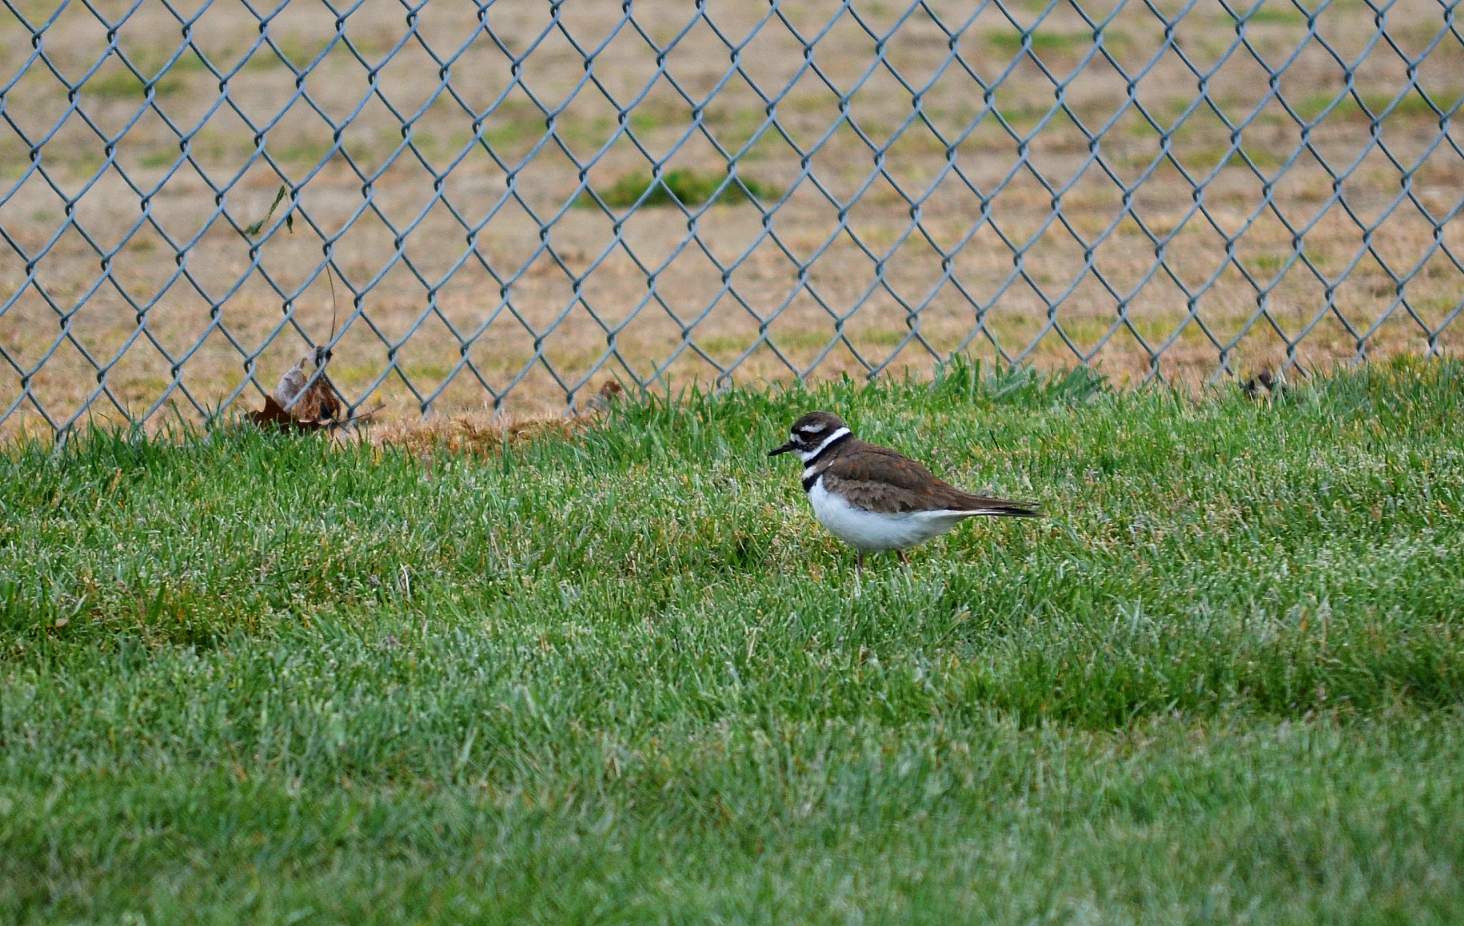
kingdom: Animalia
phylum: Chordata
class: Aves
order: Charadriiformes
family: Charadriidae
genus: Charadrius
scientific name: Charadrius vociferus
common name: Killdeer
